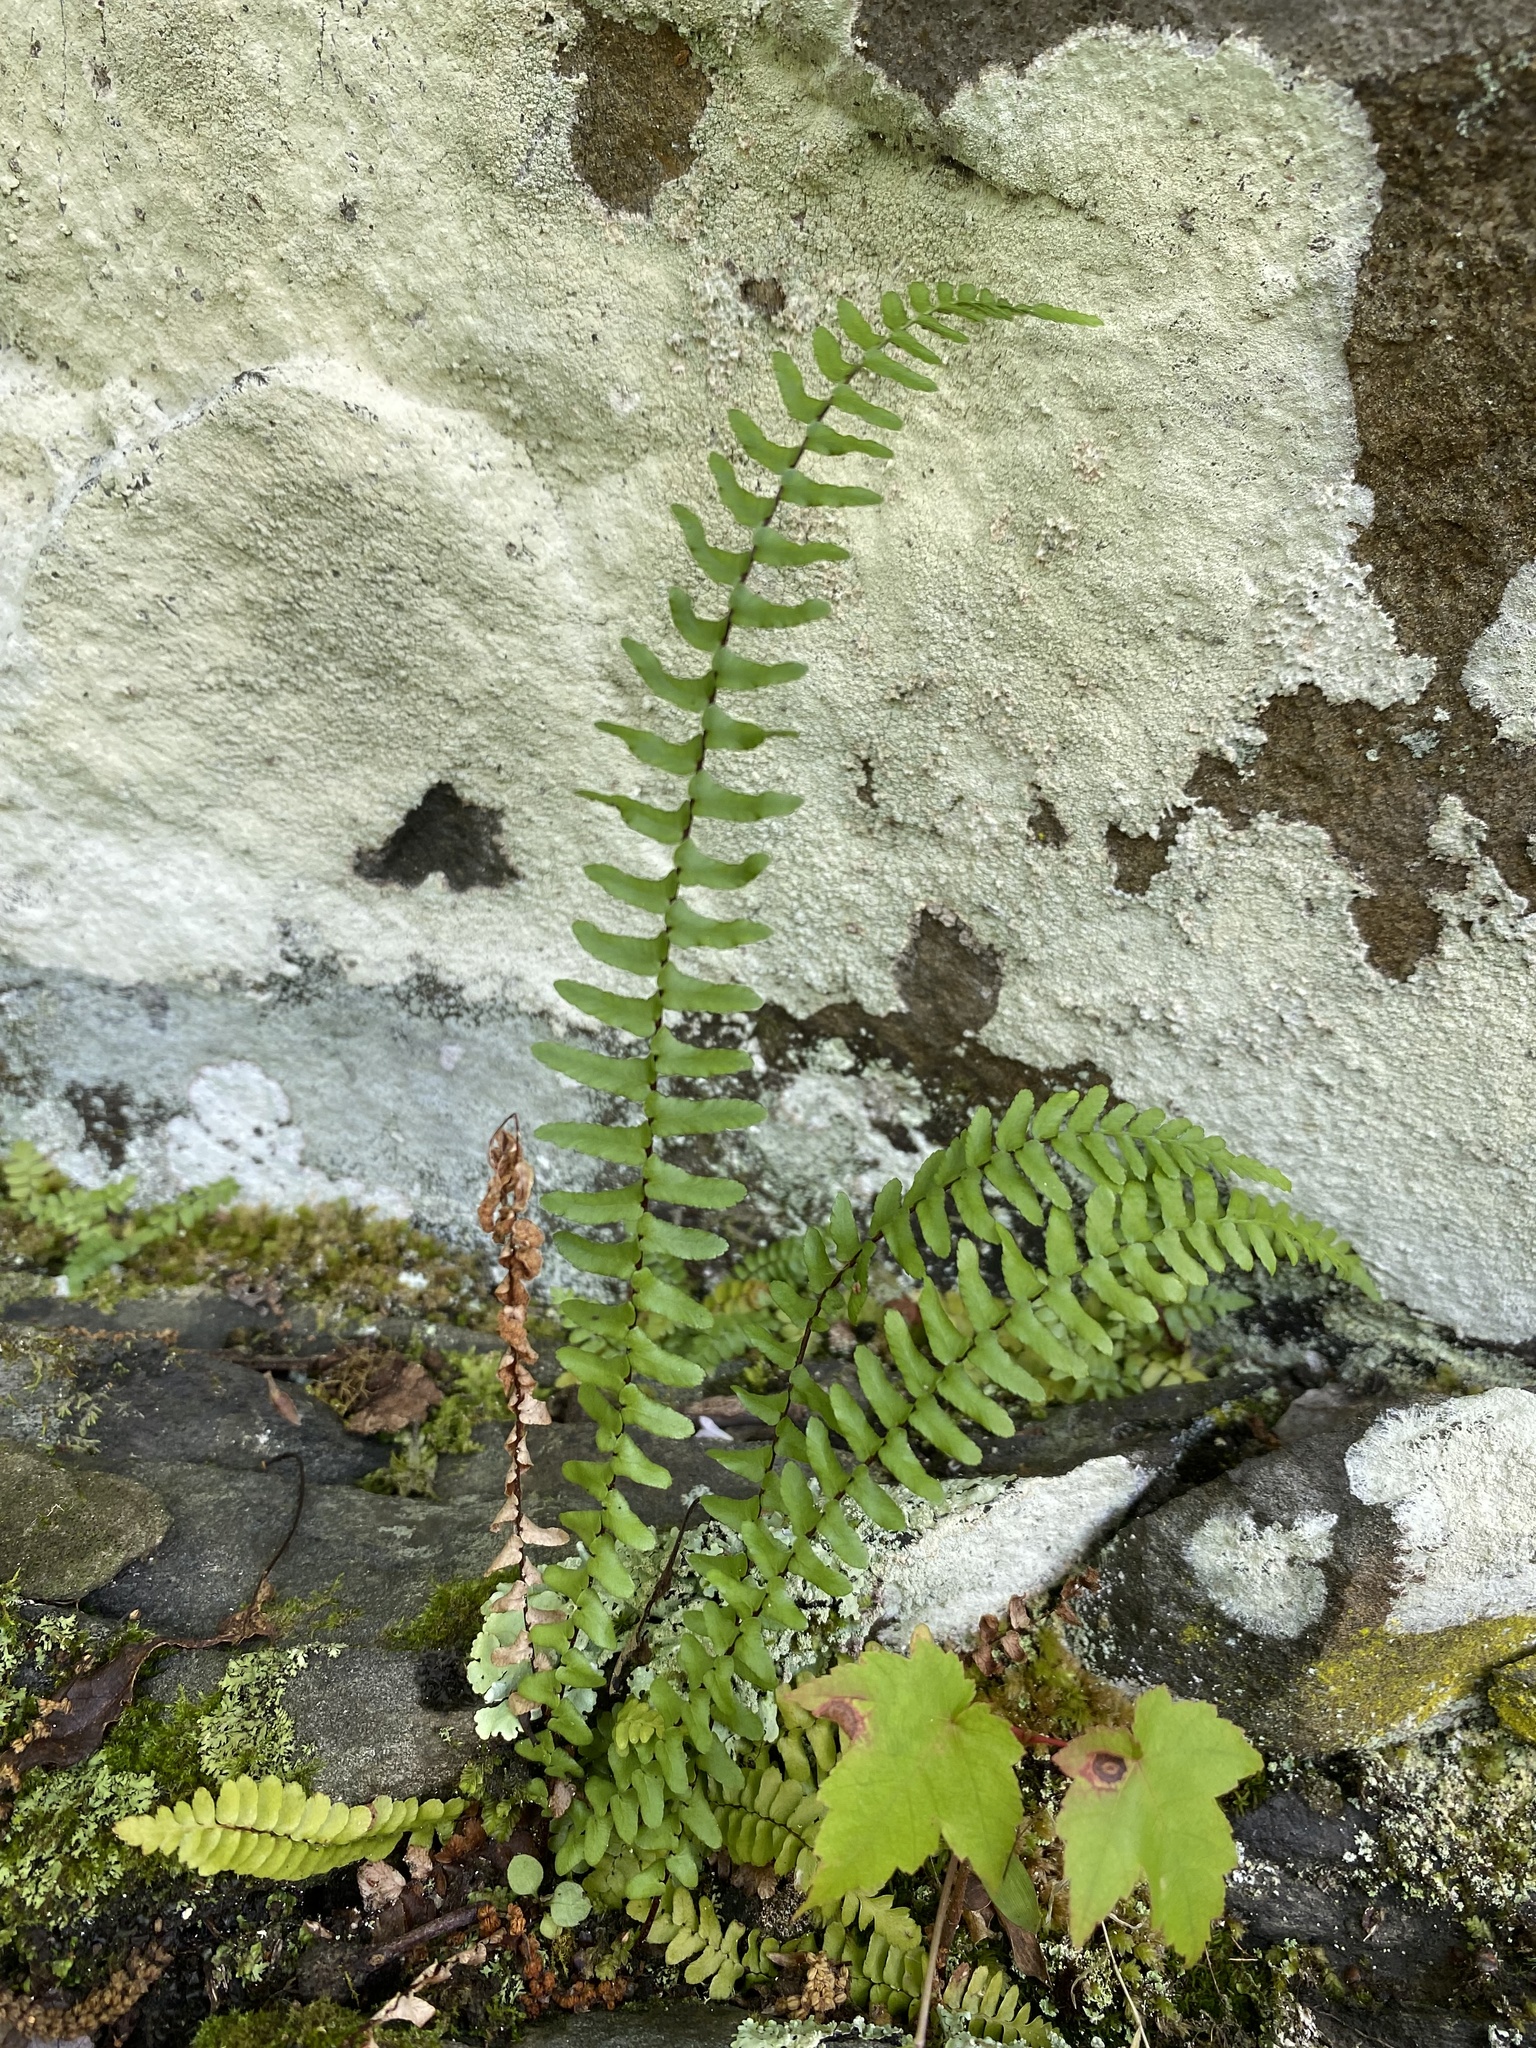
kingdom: Plantae
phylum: Tracheophyta
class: Polypodiopsida
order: Polypodiales
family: Aspleniaceae
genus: Asplenium
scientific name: Asplenium platyneuron
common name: Ebony spleenwort
